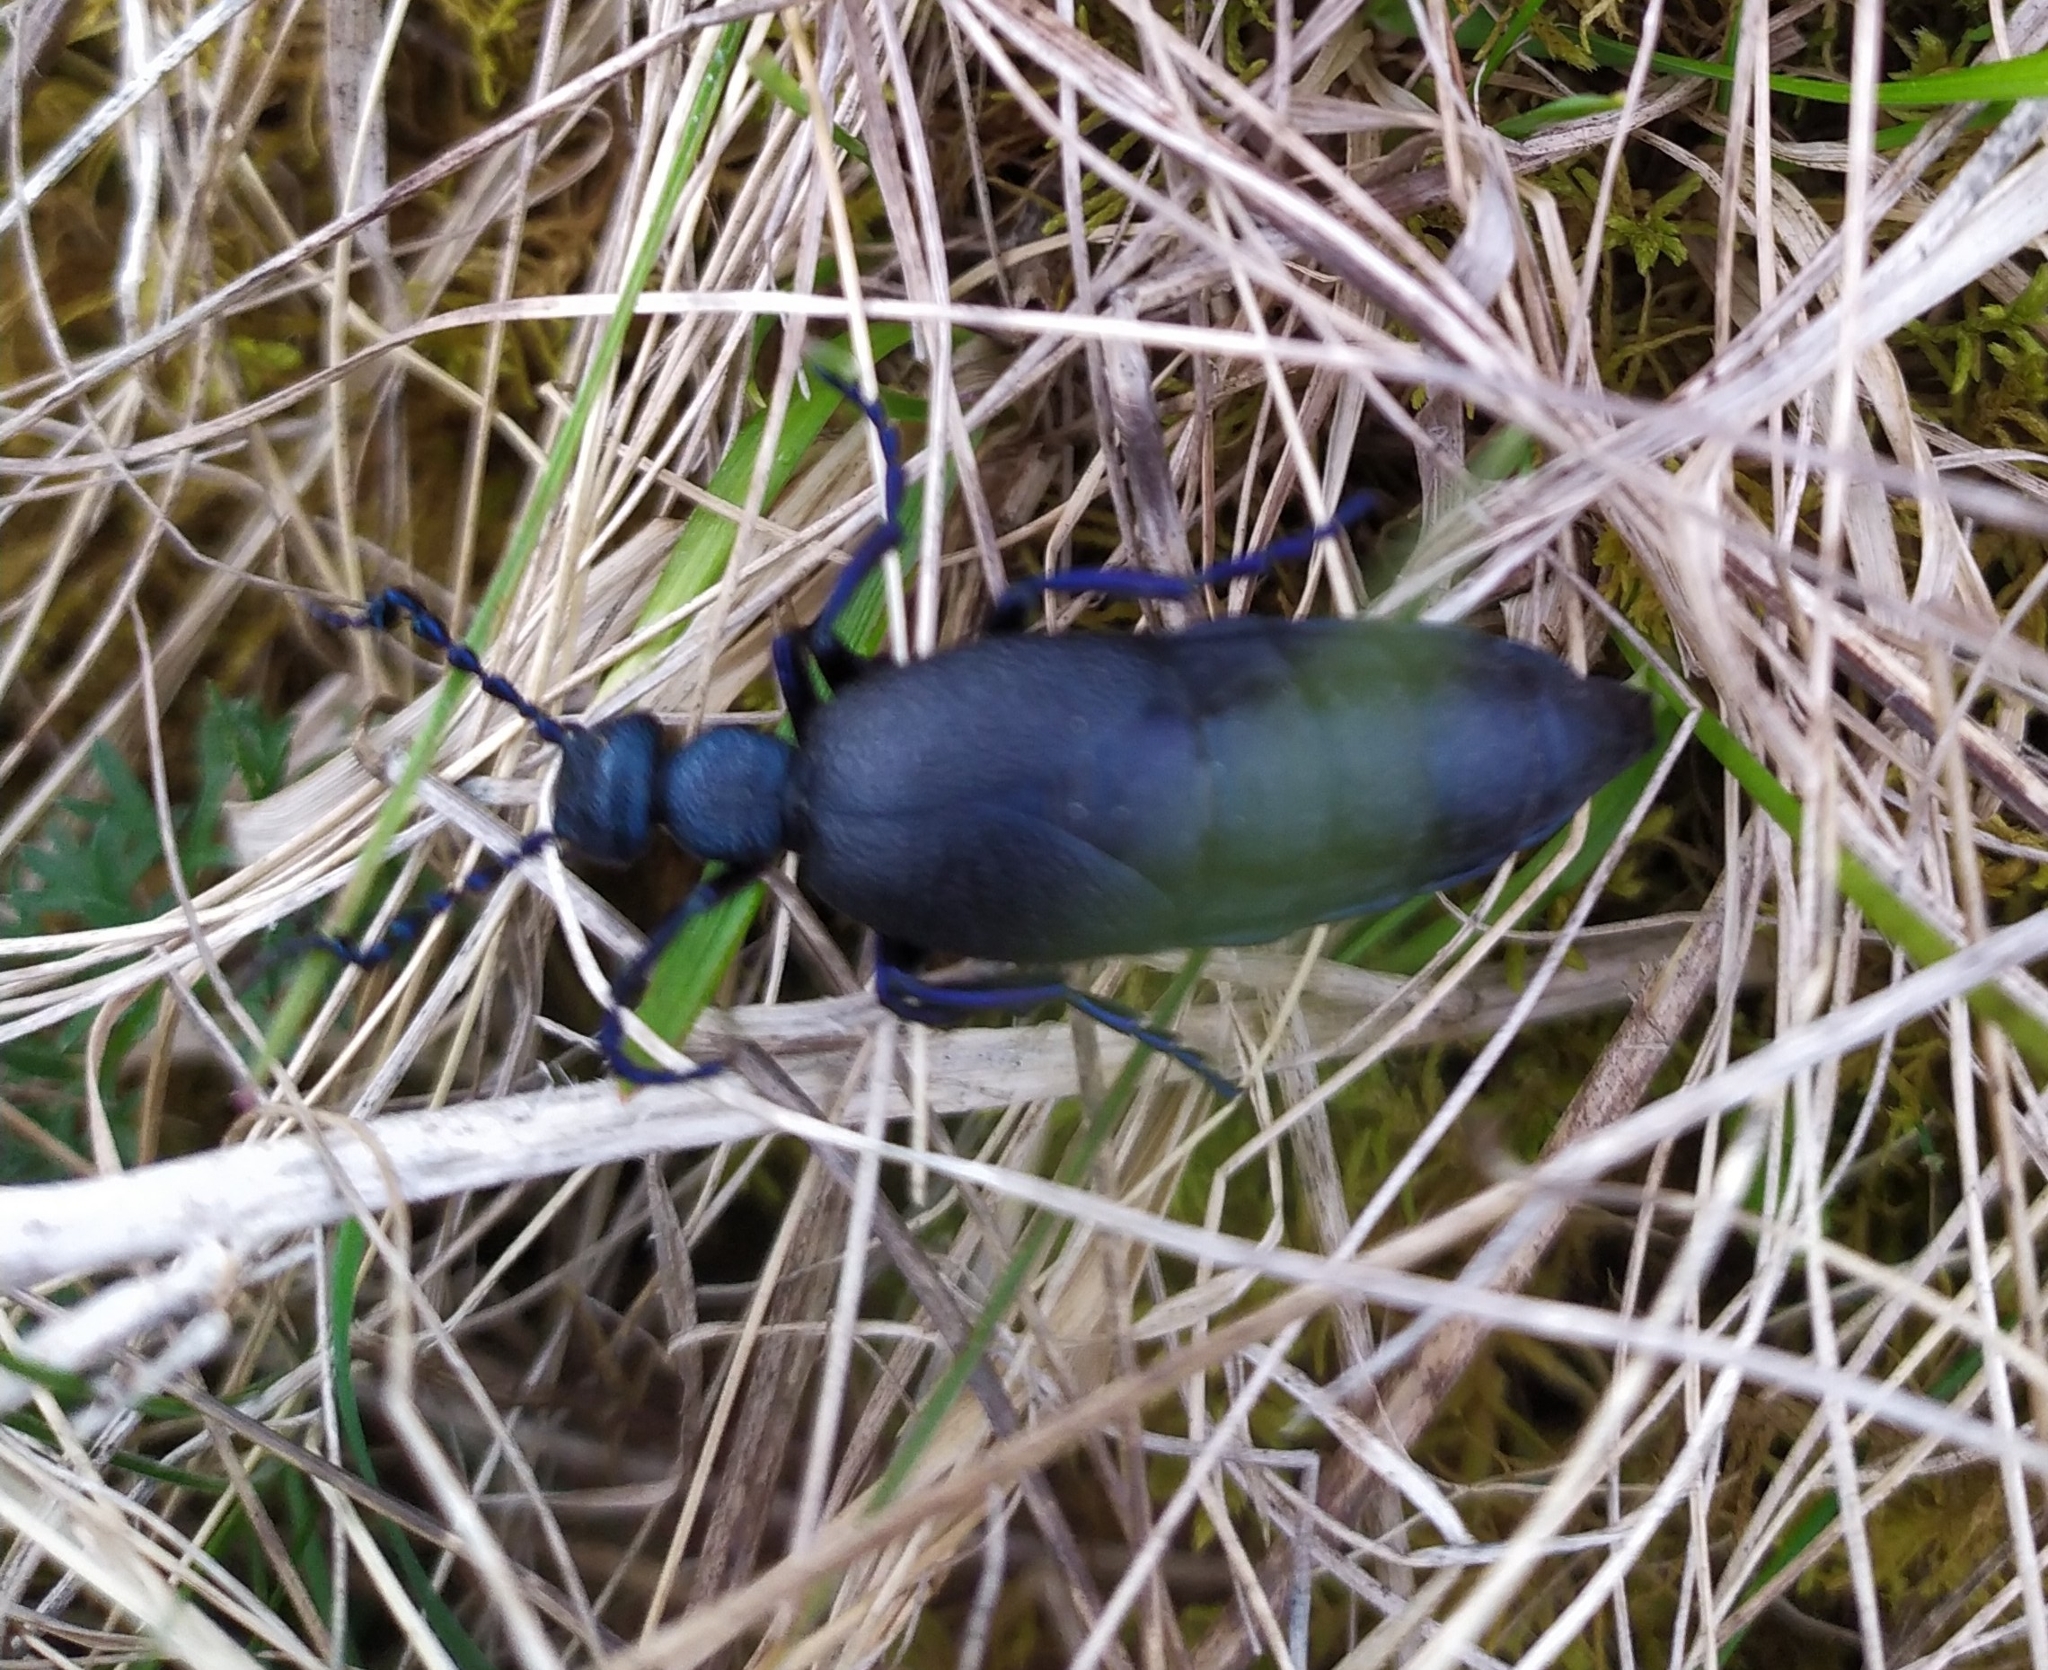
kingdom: Animalia
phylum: Arthropoda
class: Insecta
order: Coleoptera
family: Meloidae
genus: Meloe
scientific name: Meloe proscarabaeus
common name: Black oil-beetle
